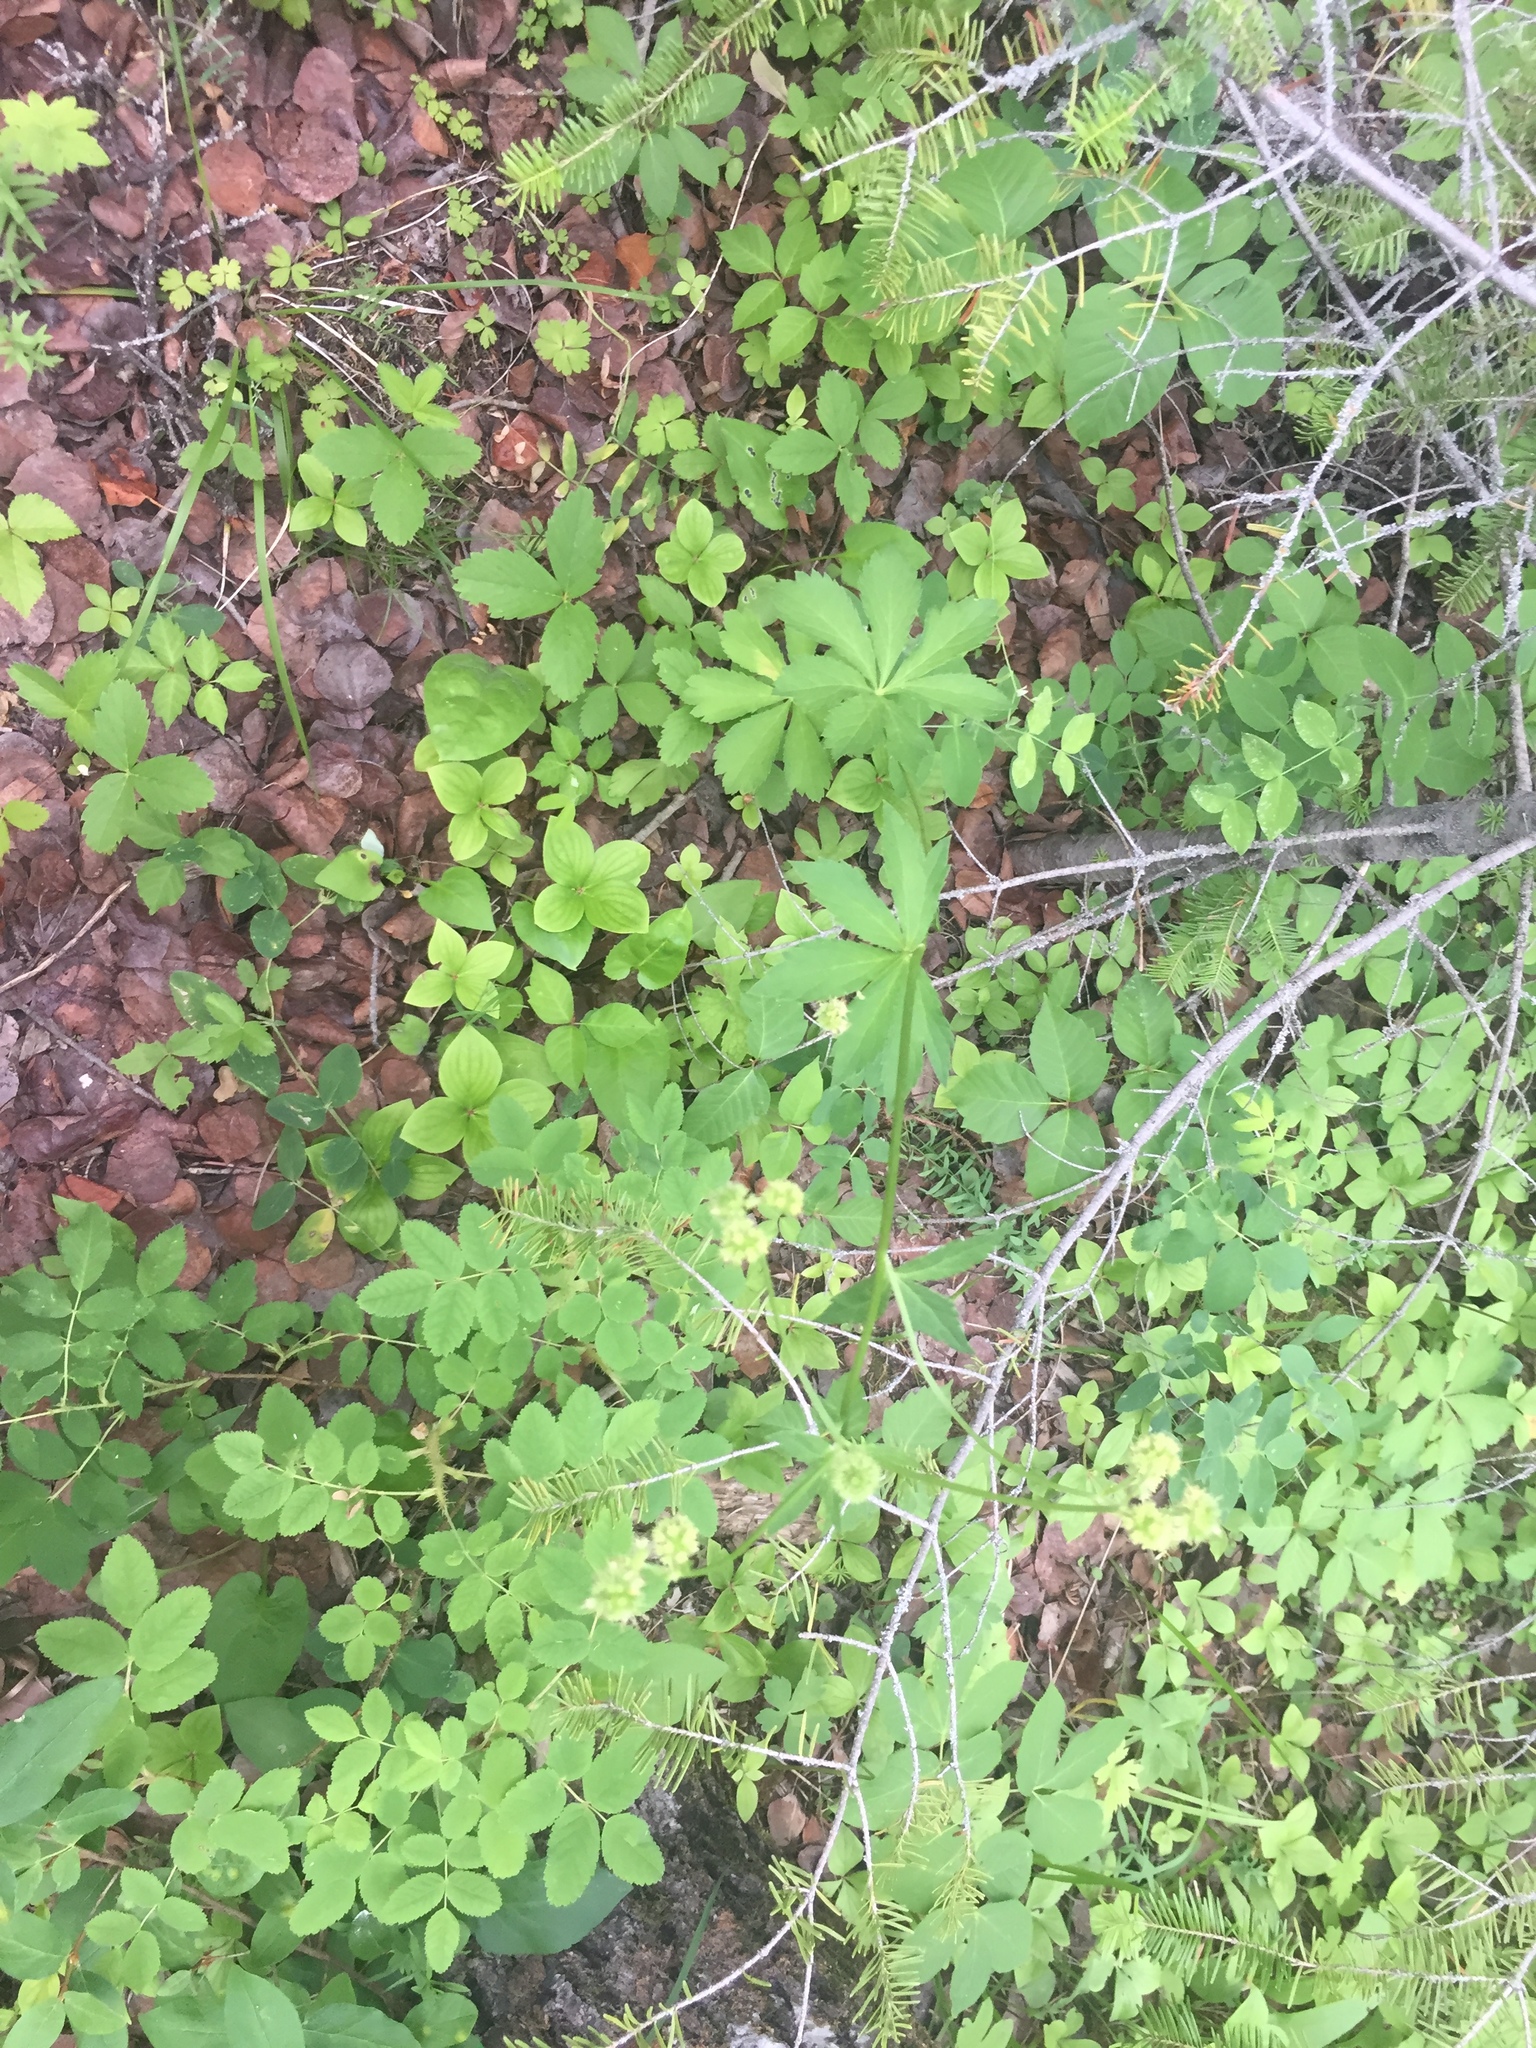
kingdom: Plantae
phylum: Tracheophyta
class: Magnoliopsida
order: Apiales
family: Apiaceae
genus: Sanicula
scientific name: Sanicula marilandica
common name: Black snakeroot
